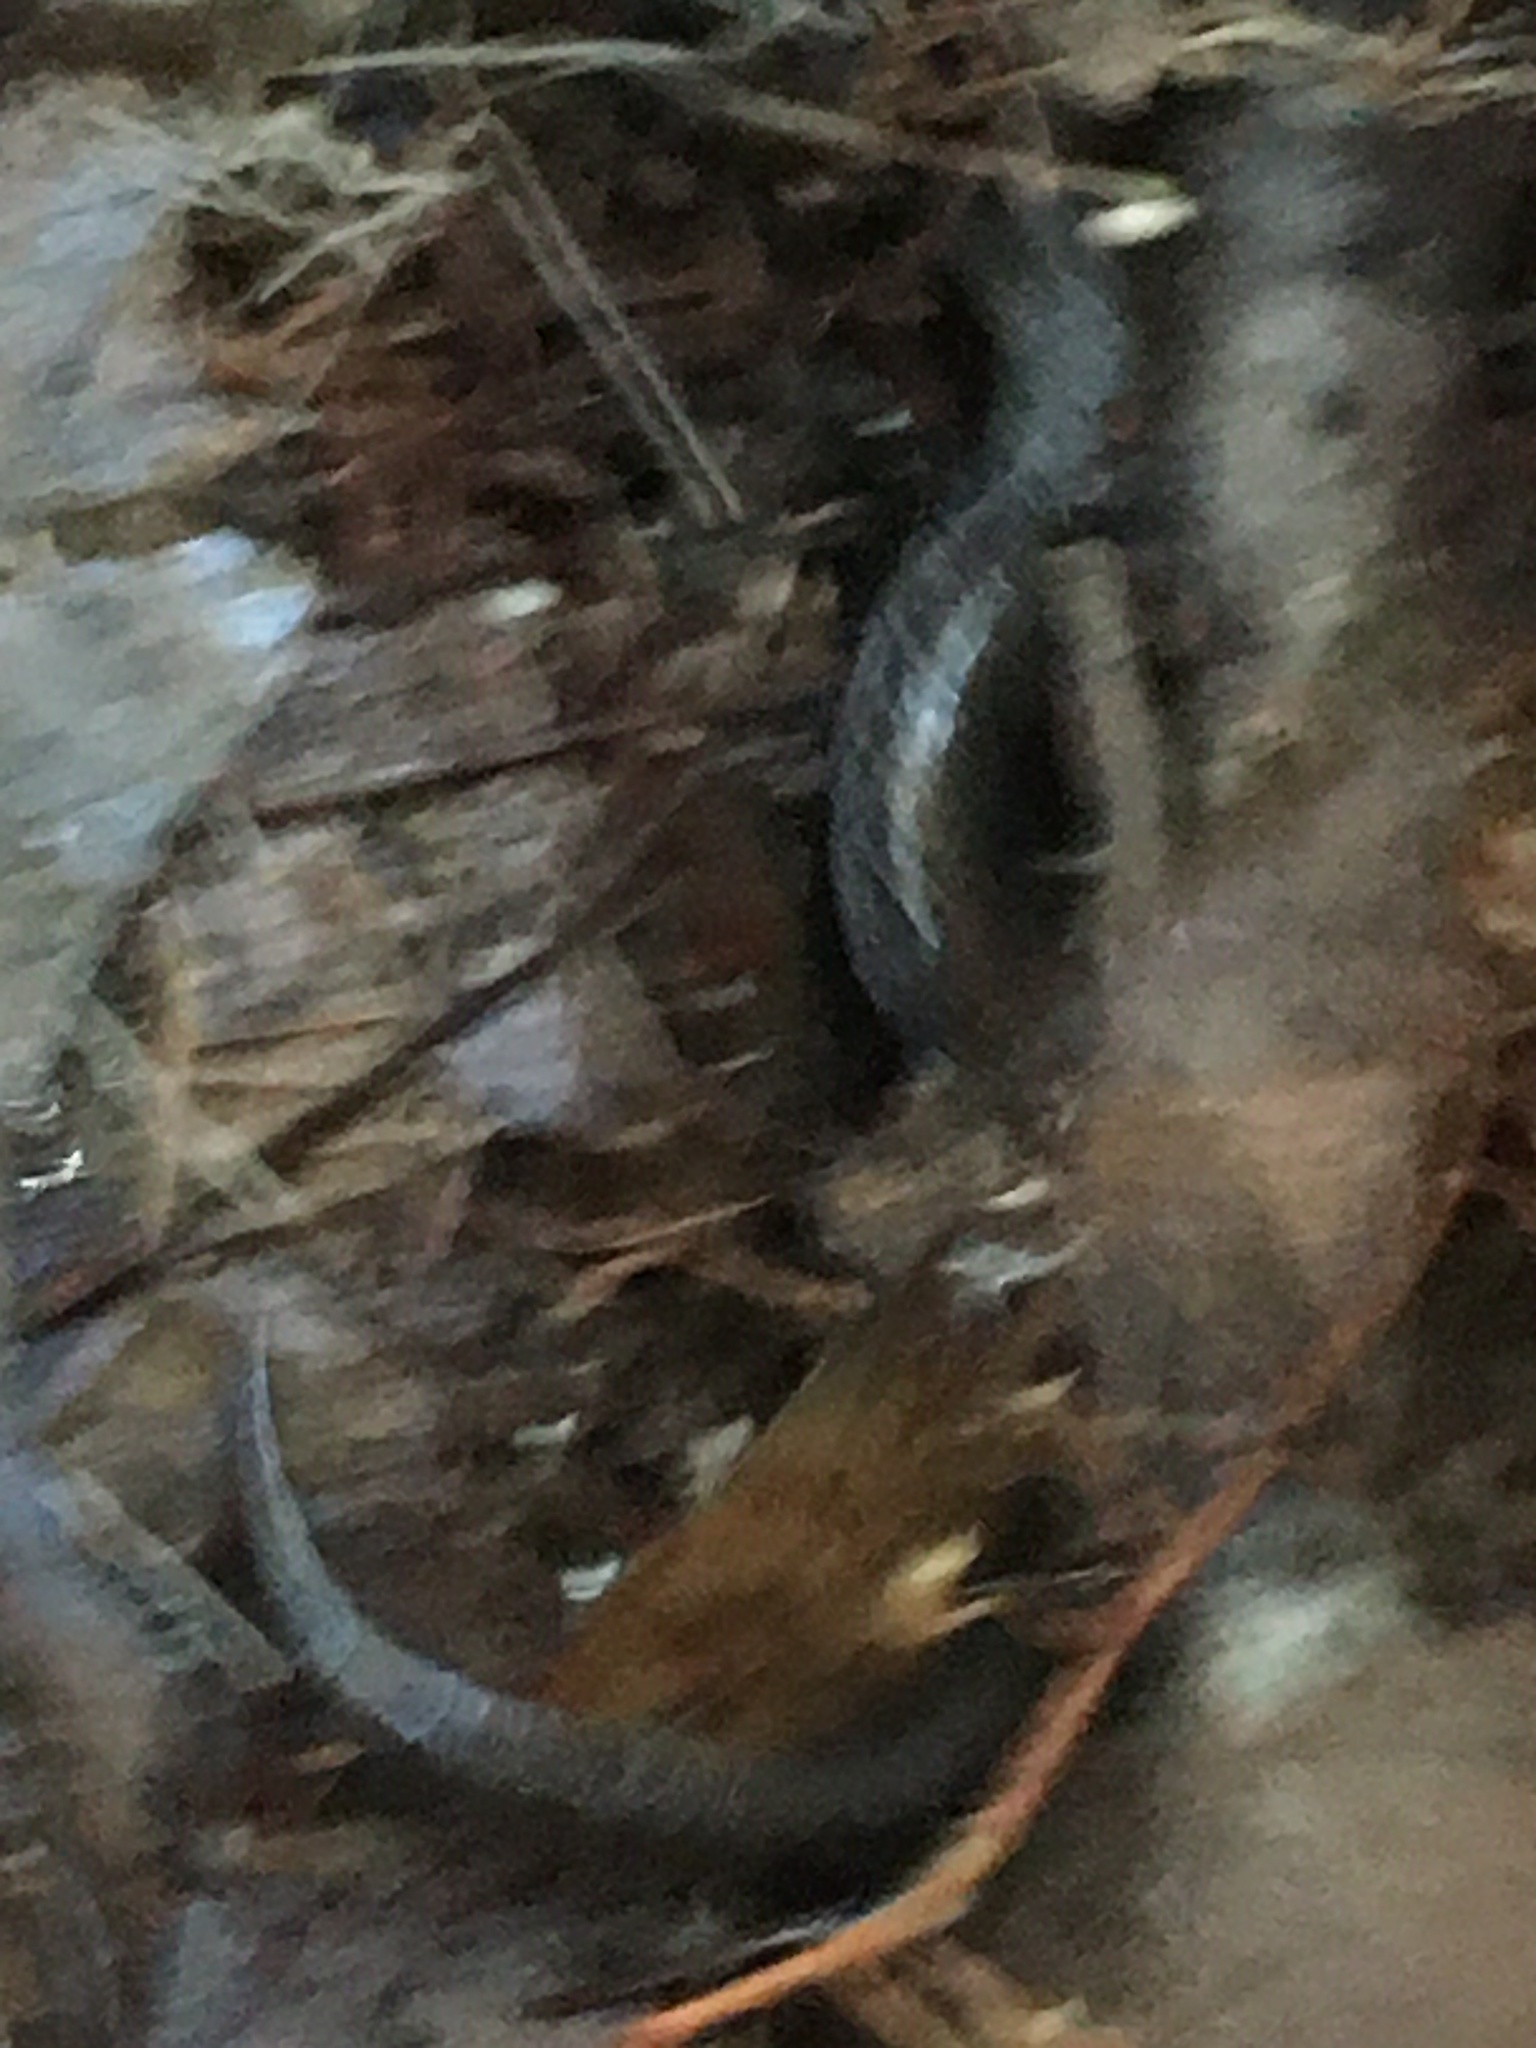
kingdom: Animalia
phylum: Chordata
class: Amphibia
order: Caudata
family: Plethodontidae
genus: Plethodon
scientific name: Plethodon cinereus
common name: Redback salamander
